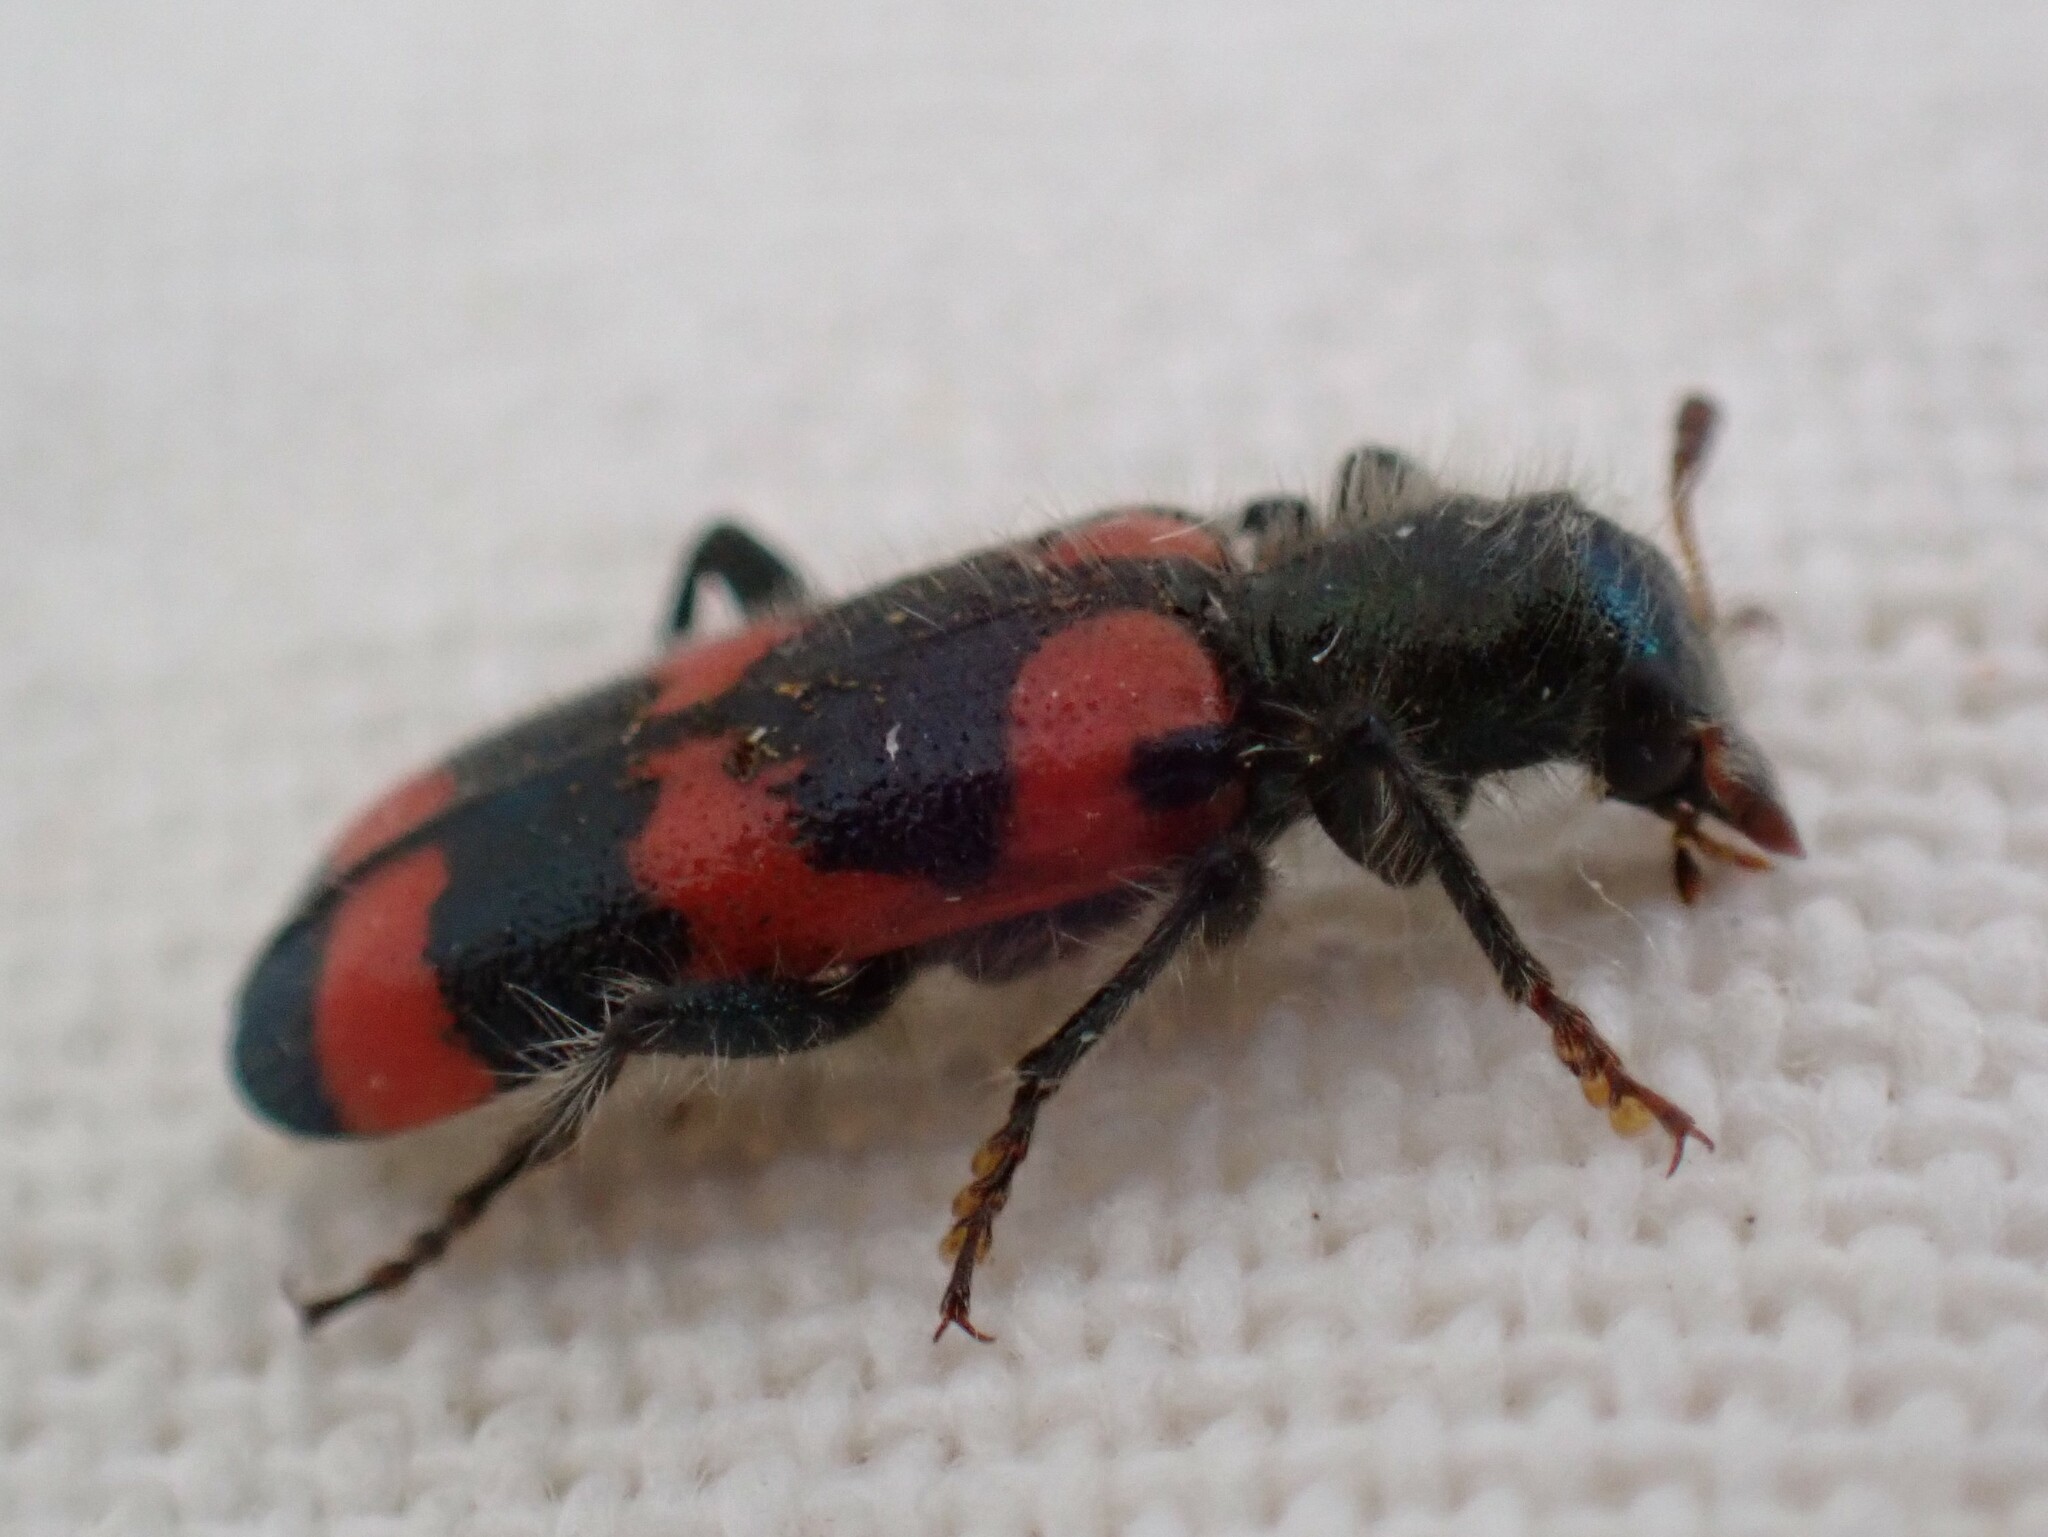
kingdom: Animalia
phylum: Arthropoda
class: Insecta
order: Coleoptera
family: Cleridae
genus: Trichodes
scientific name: Trichodes nutalli
